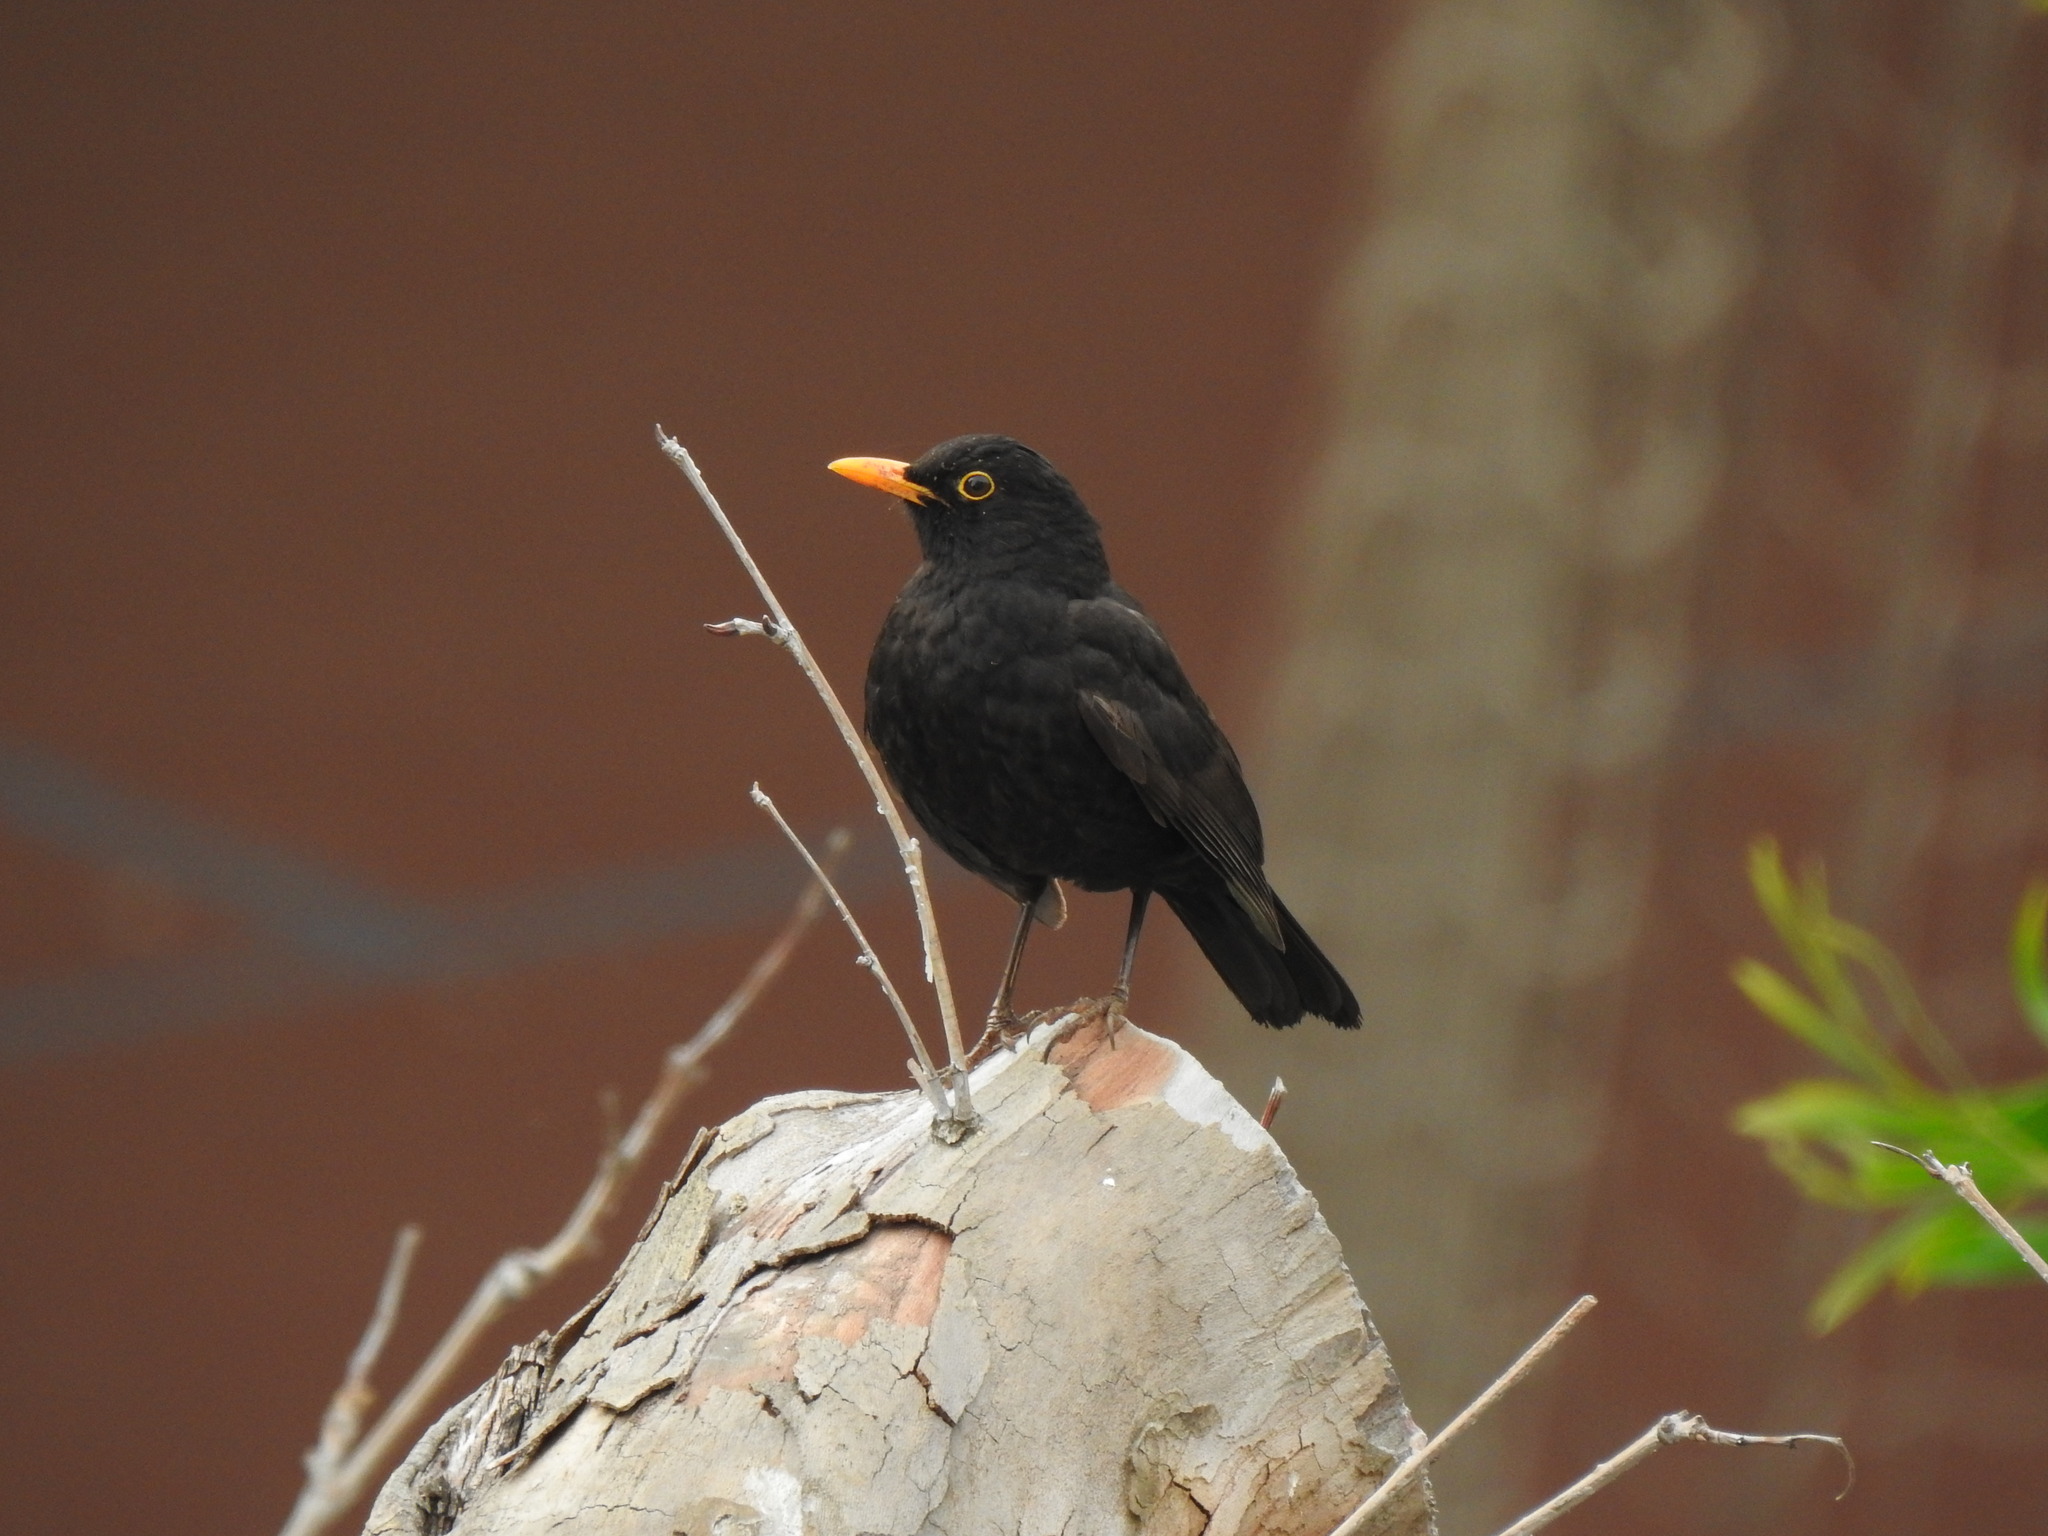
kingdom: Animalia
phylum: Chordata
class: Aves
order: Passeriformes
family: Turdidae
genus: Turdus
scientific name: Turdus merula
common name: Common blackbird
